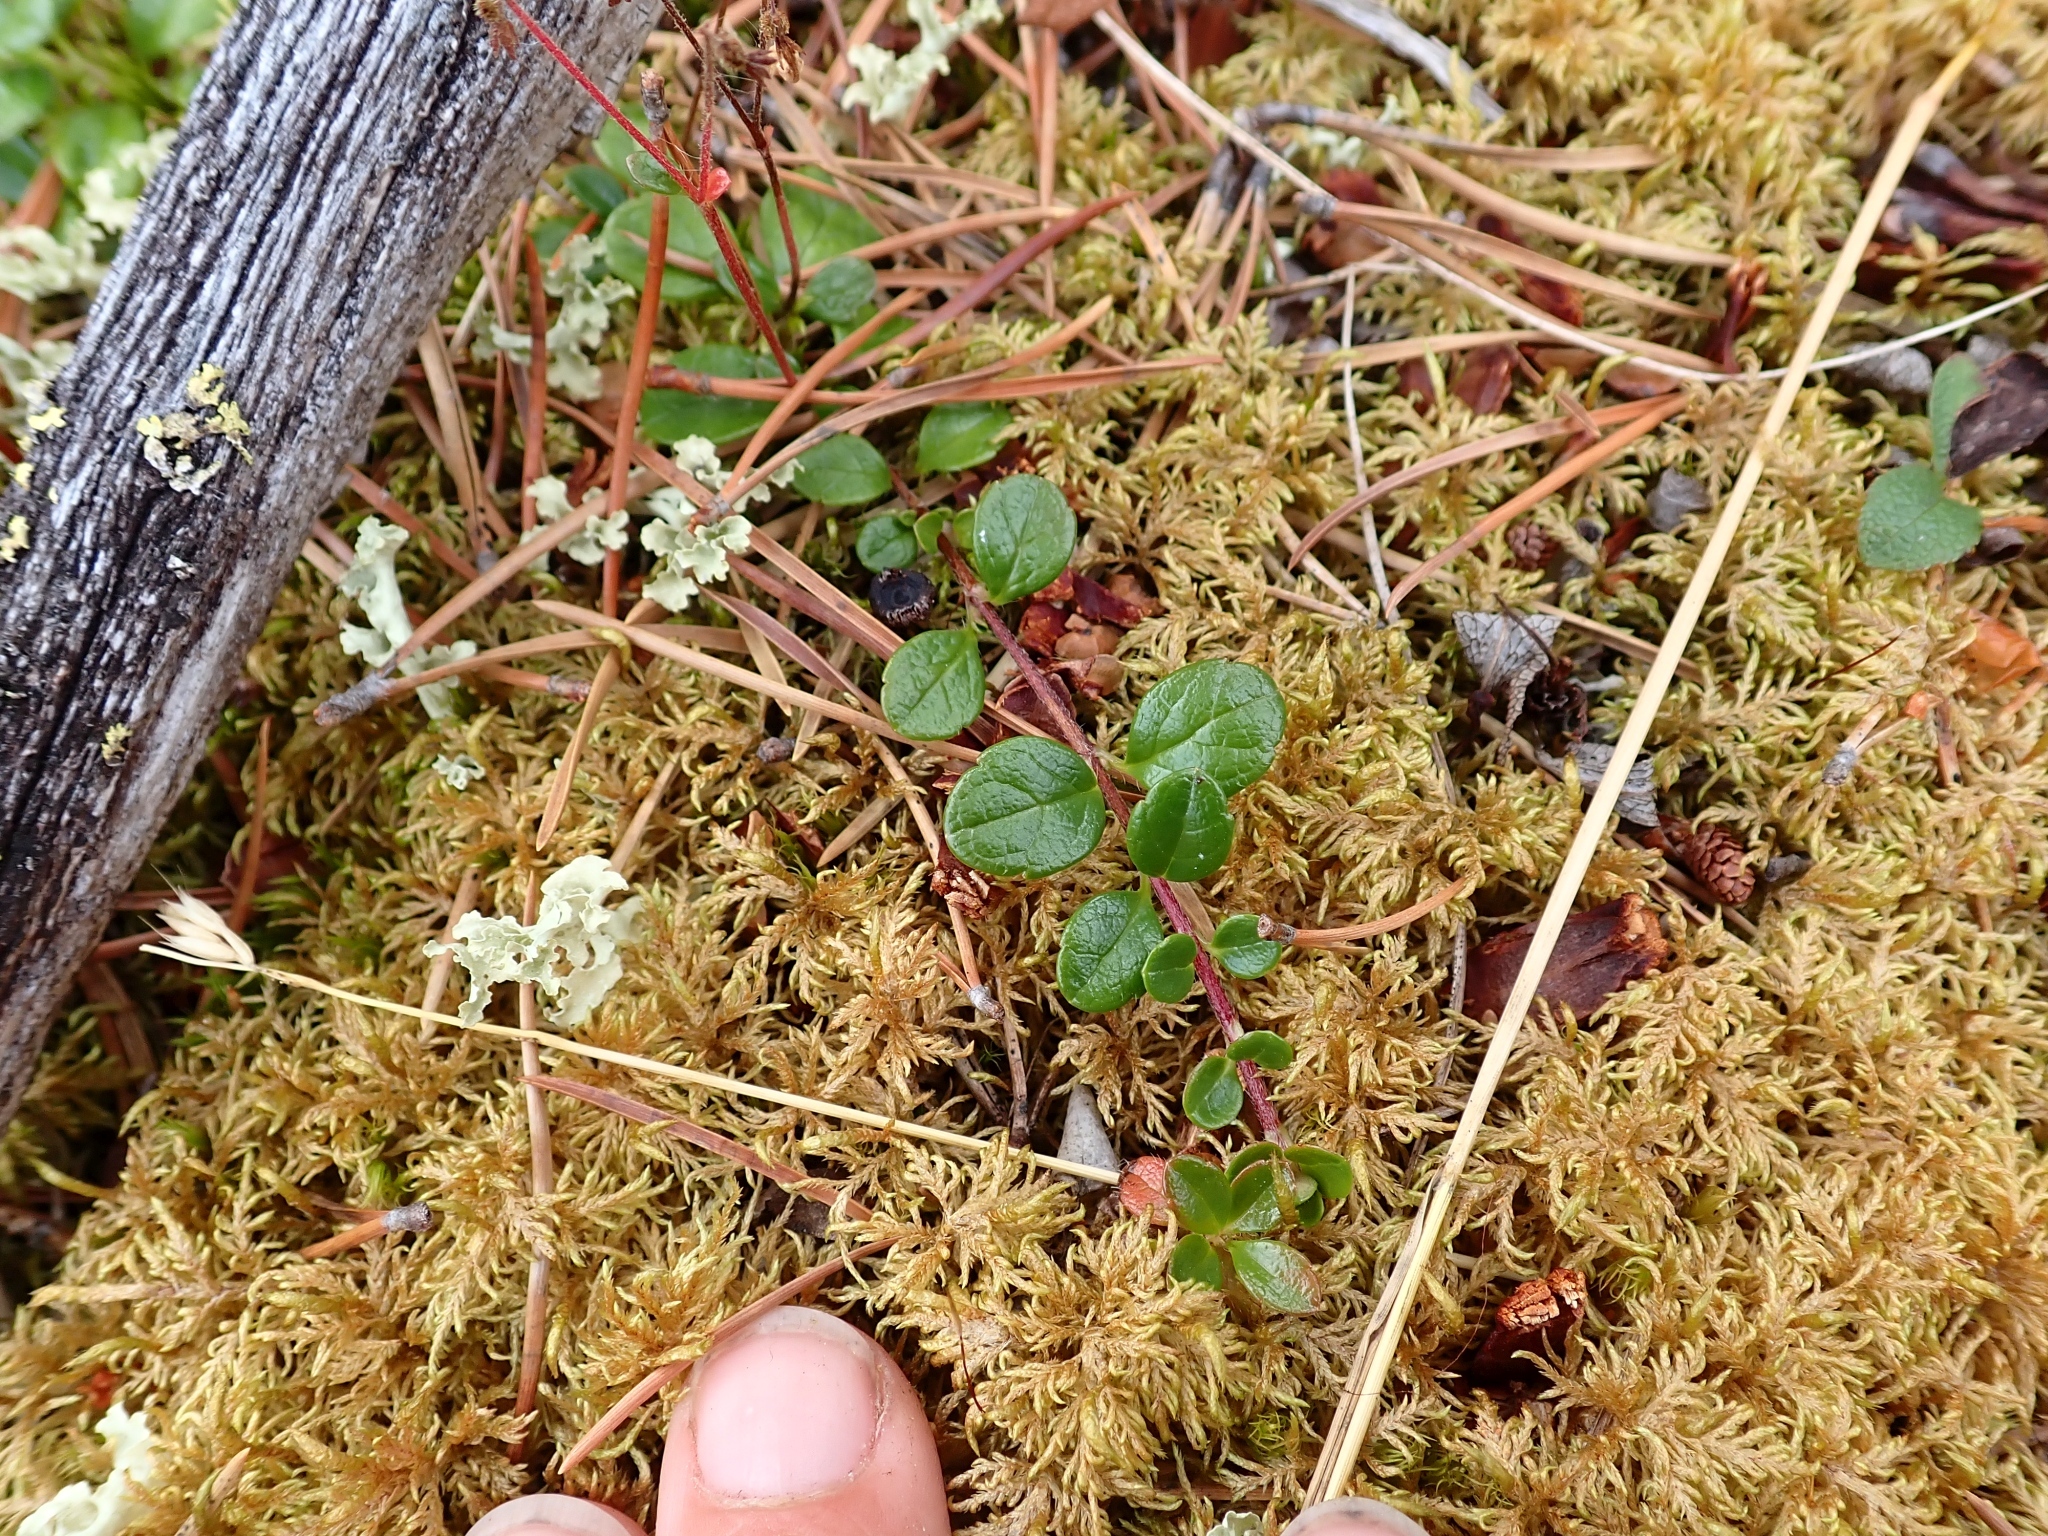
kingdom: Plantae
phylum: Tracheophyta
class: Magnoliopsida
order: Dipsacales
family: Caprifoliaceae
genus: Linnaea
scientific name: Linnaea borealis
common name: Twinflower
